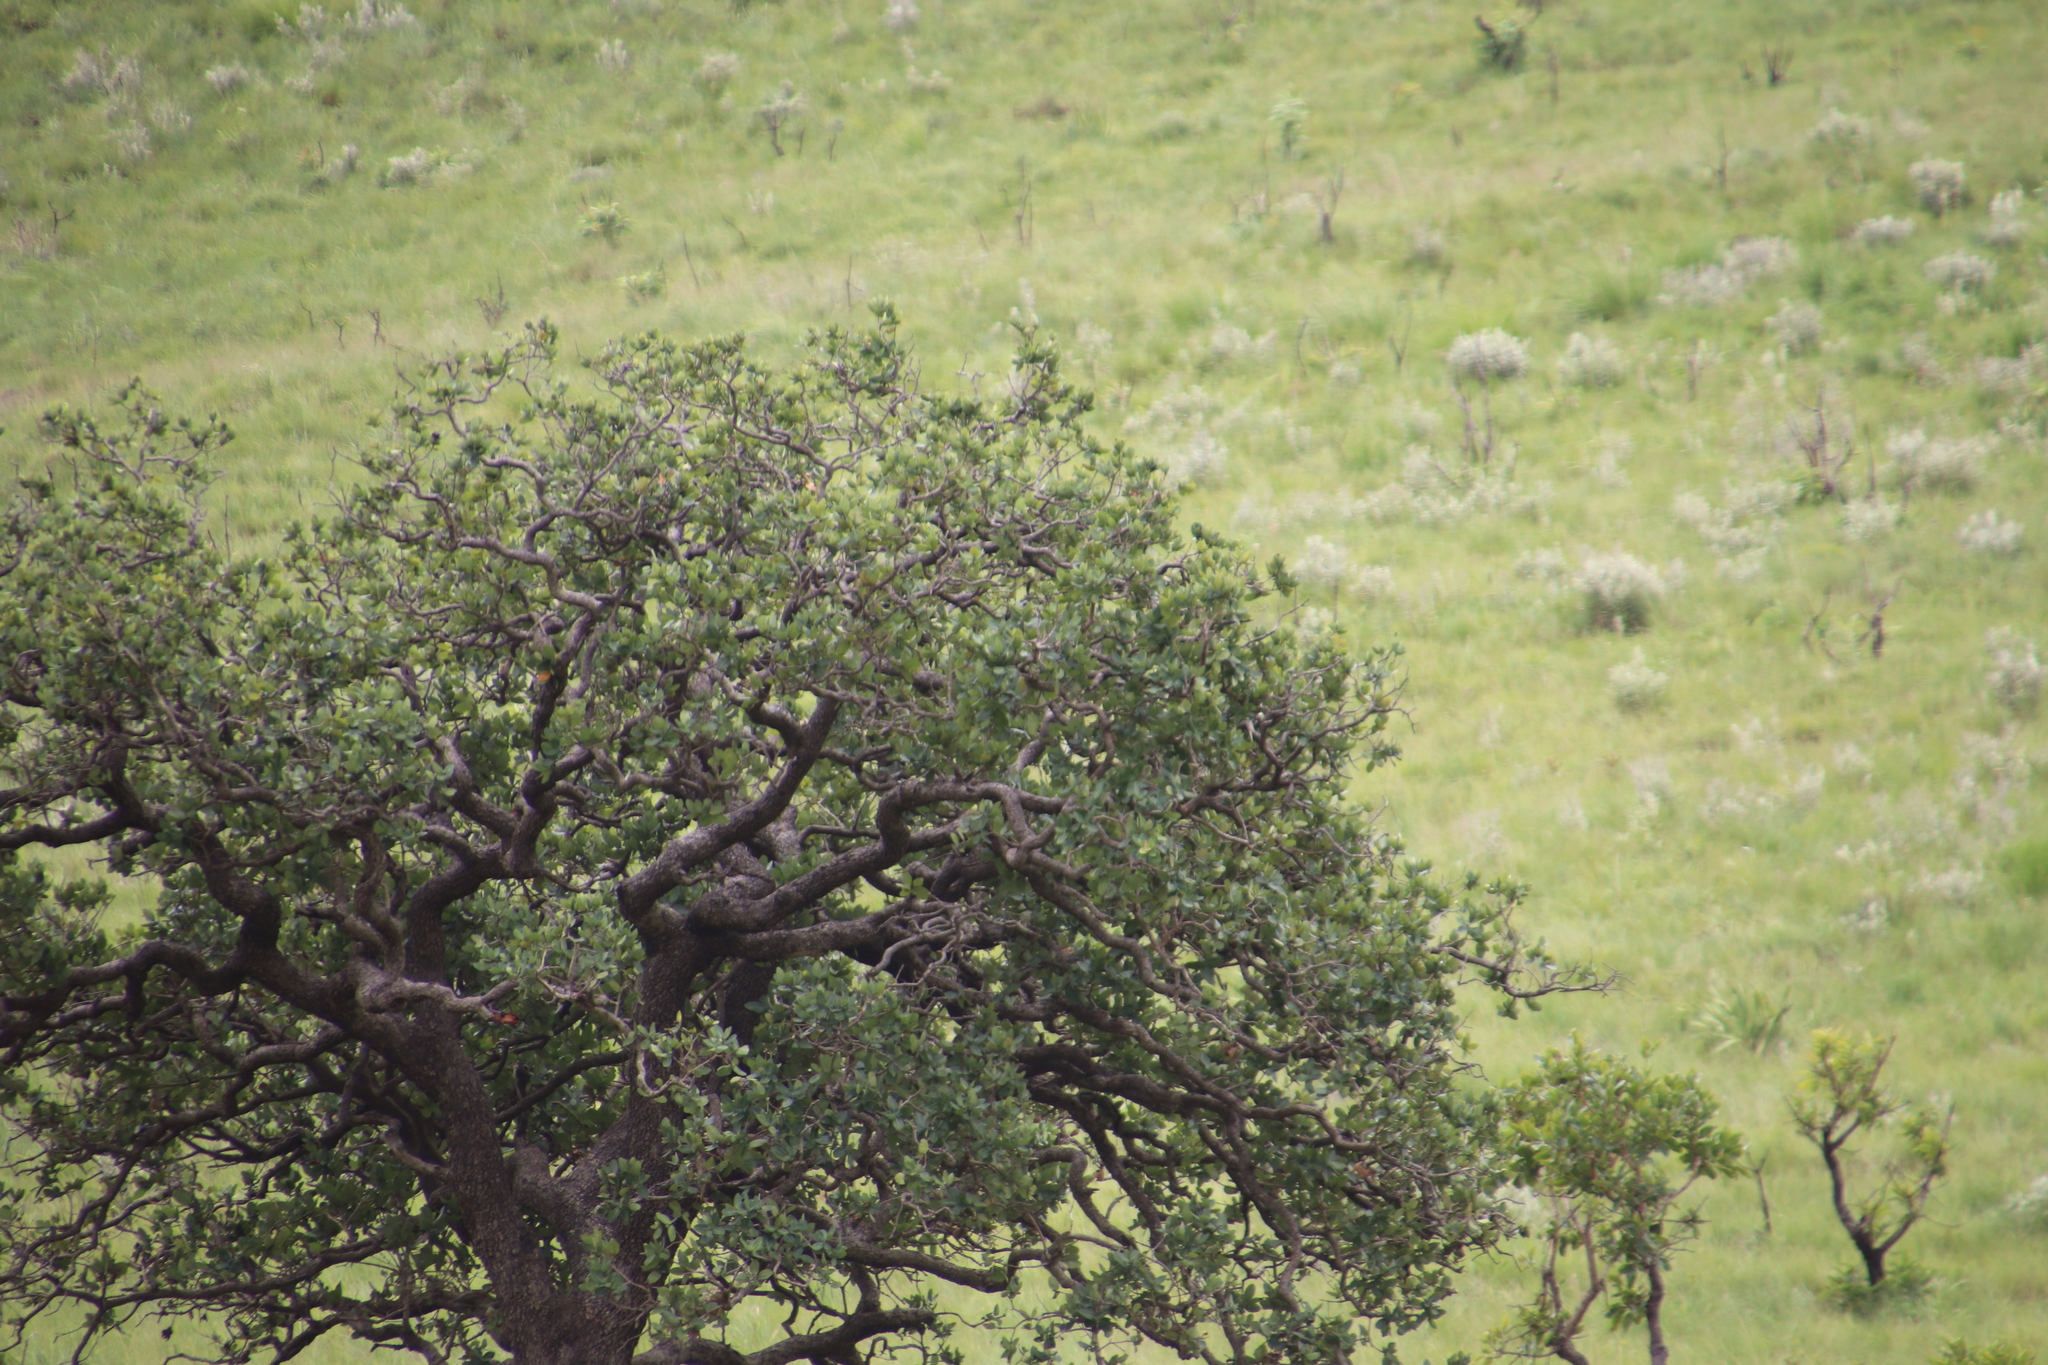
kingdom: Plantae
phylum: Tracheophyta
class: Magnoliopsida
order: Myrtales
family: Myrtaceae
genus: Syzygium
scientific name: Syzygium cordatum
